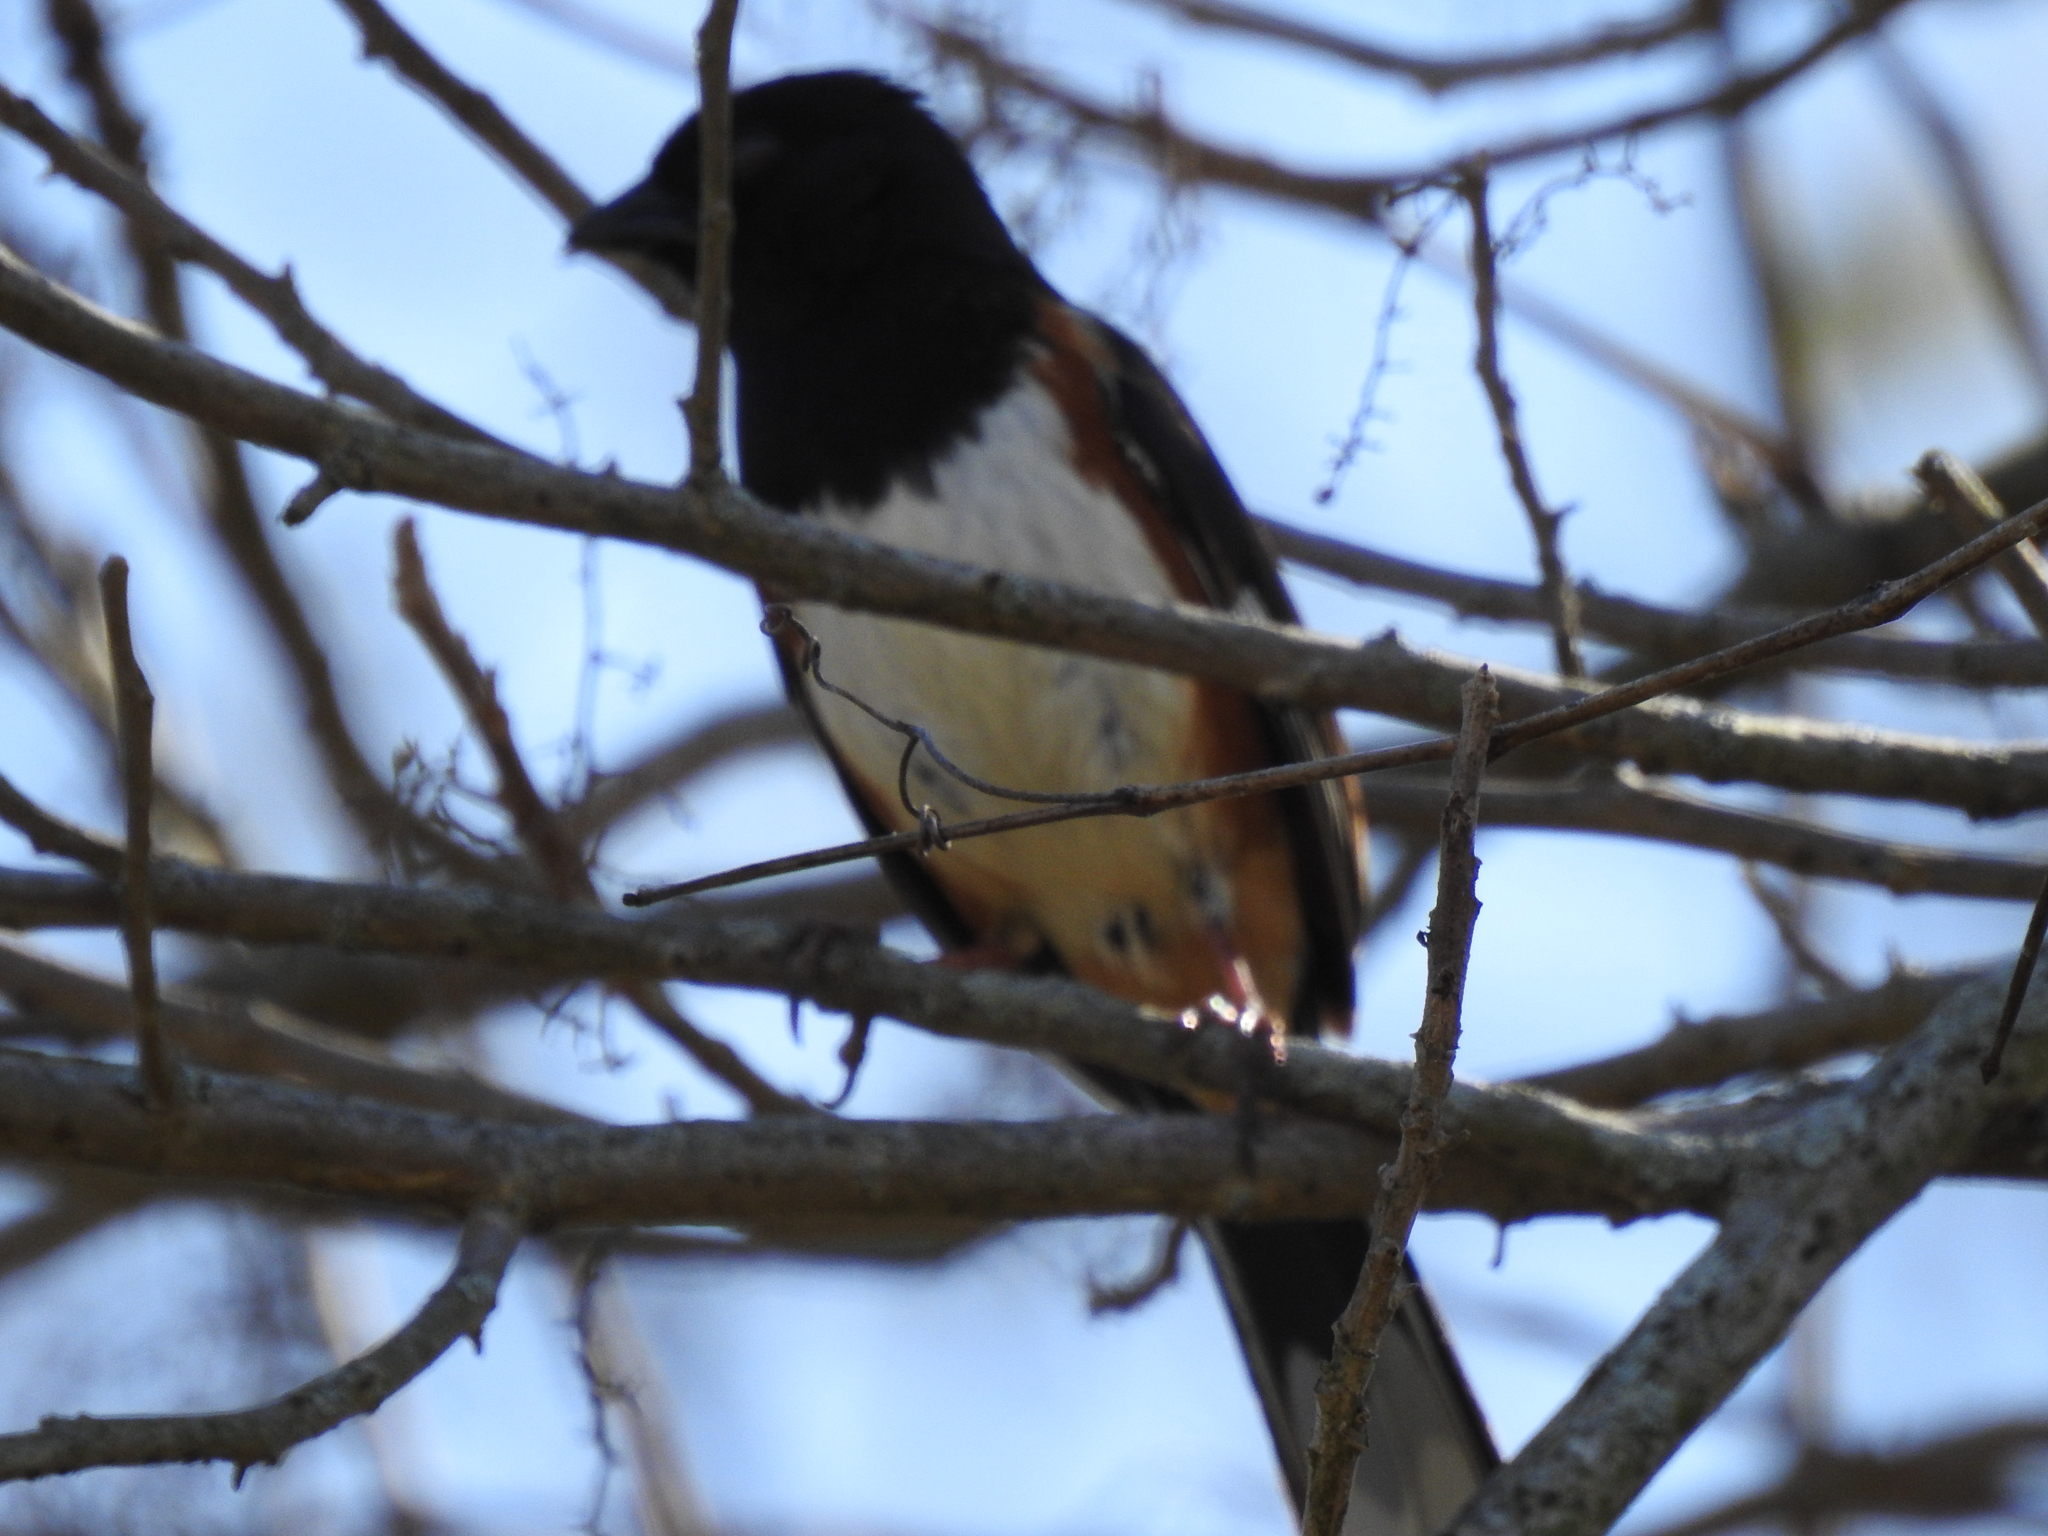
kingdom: Animalia
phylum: Chordata
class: Aves
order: Passeriformes
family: Passerellidae
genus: Pipilo
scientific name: Pipilo erythrophthalmus
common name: Eastern towhee
